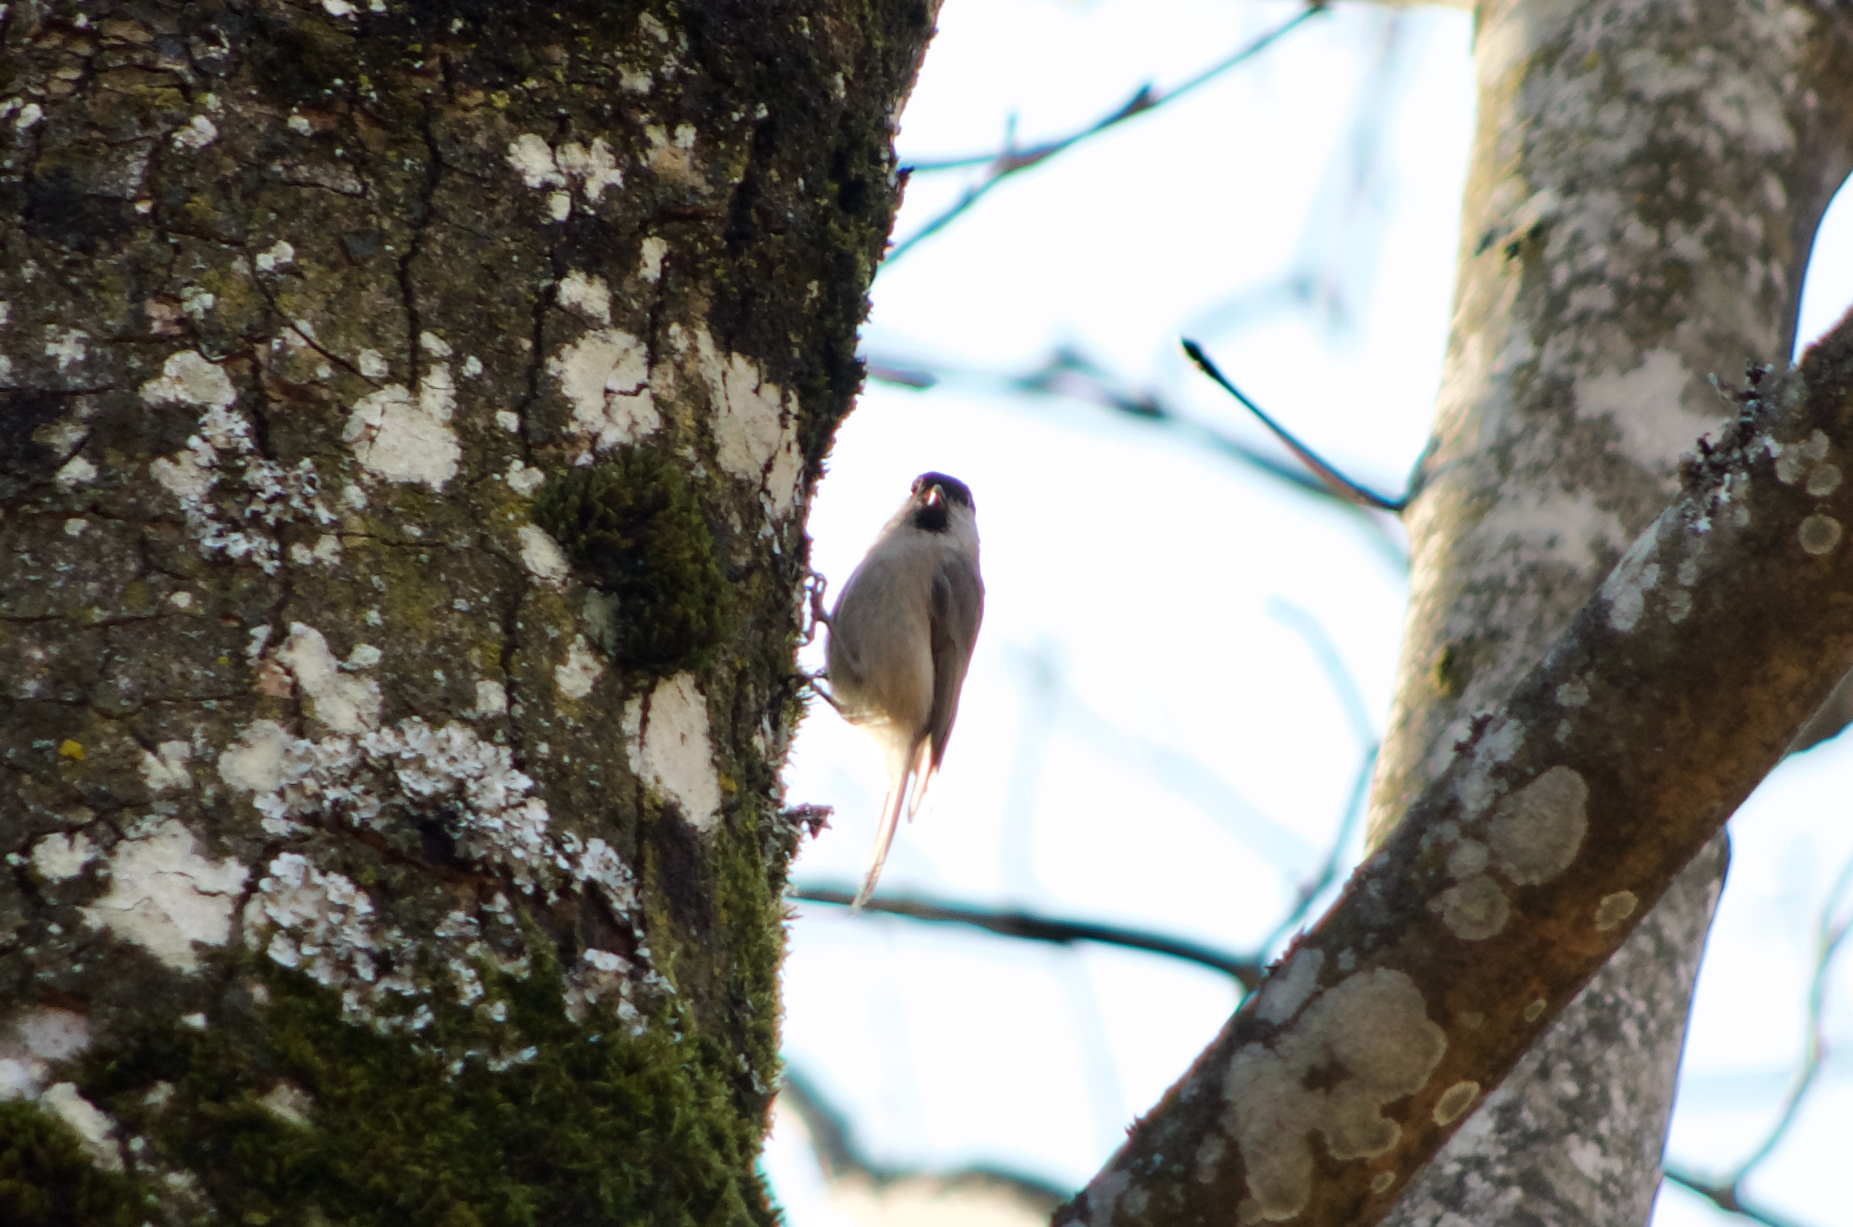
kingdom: Animalia
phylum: Chordata
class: Aves
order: Passeriformes
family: Paridae
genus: Poecile
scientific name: Poecile palustris
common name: Marsh tit
